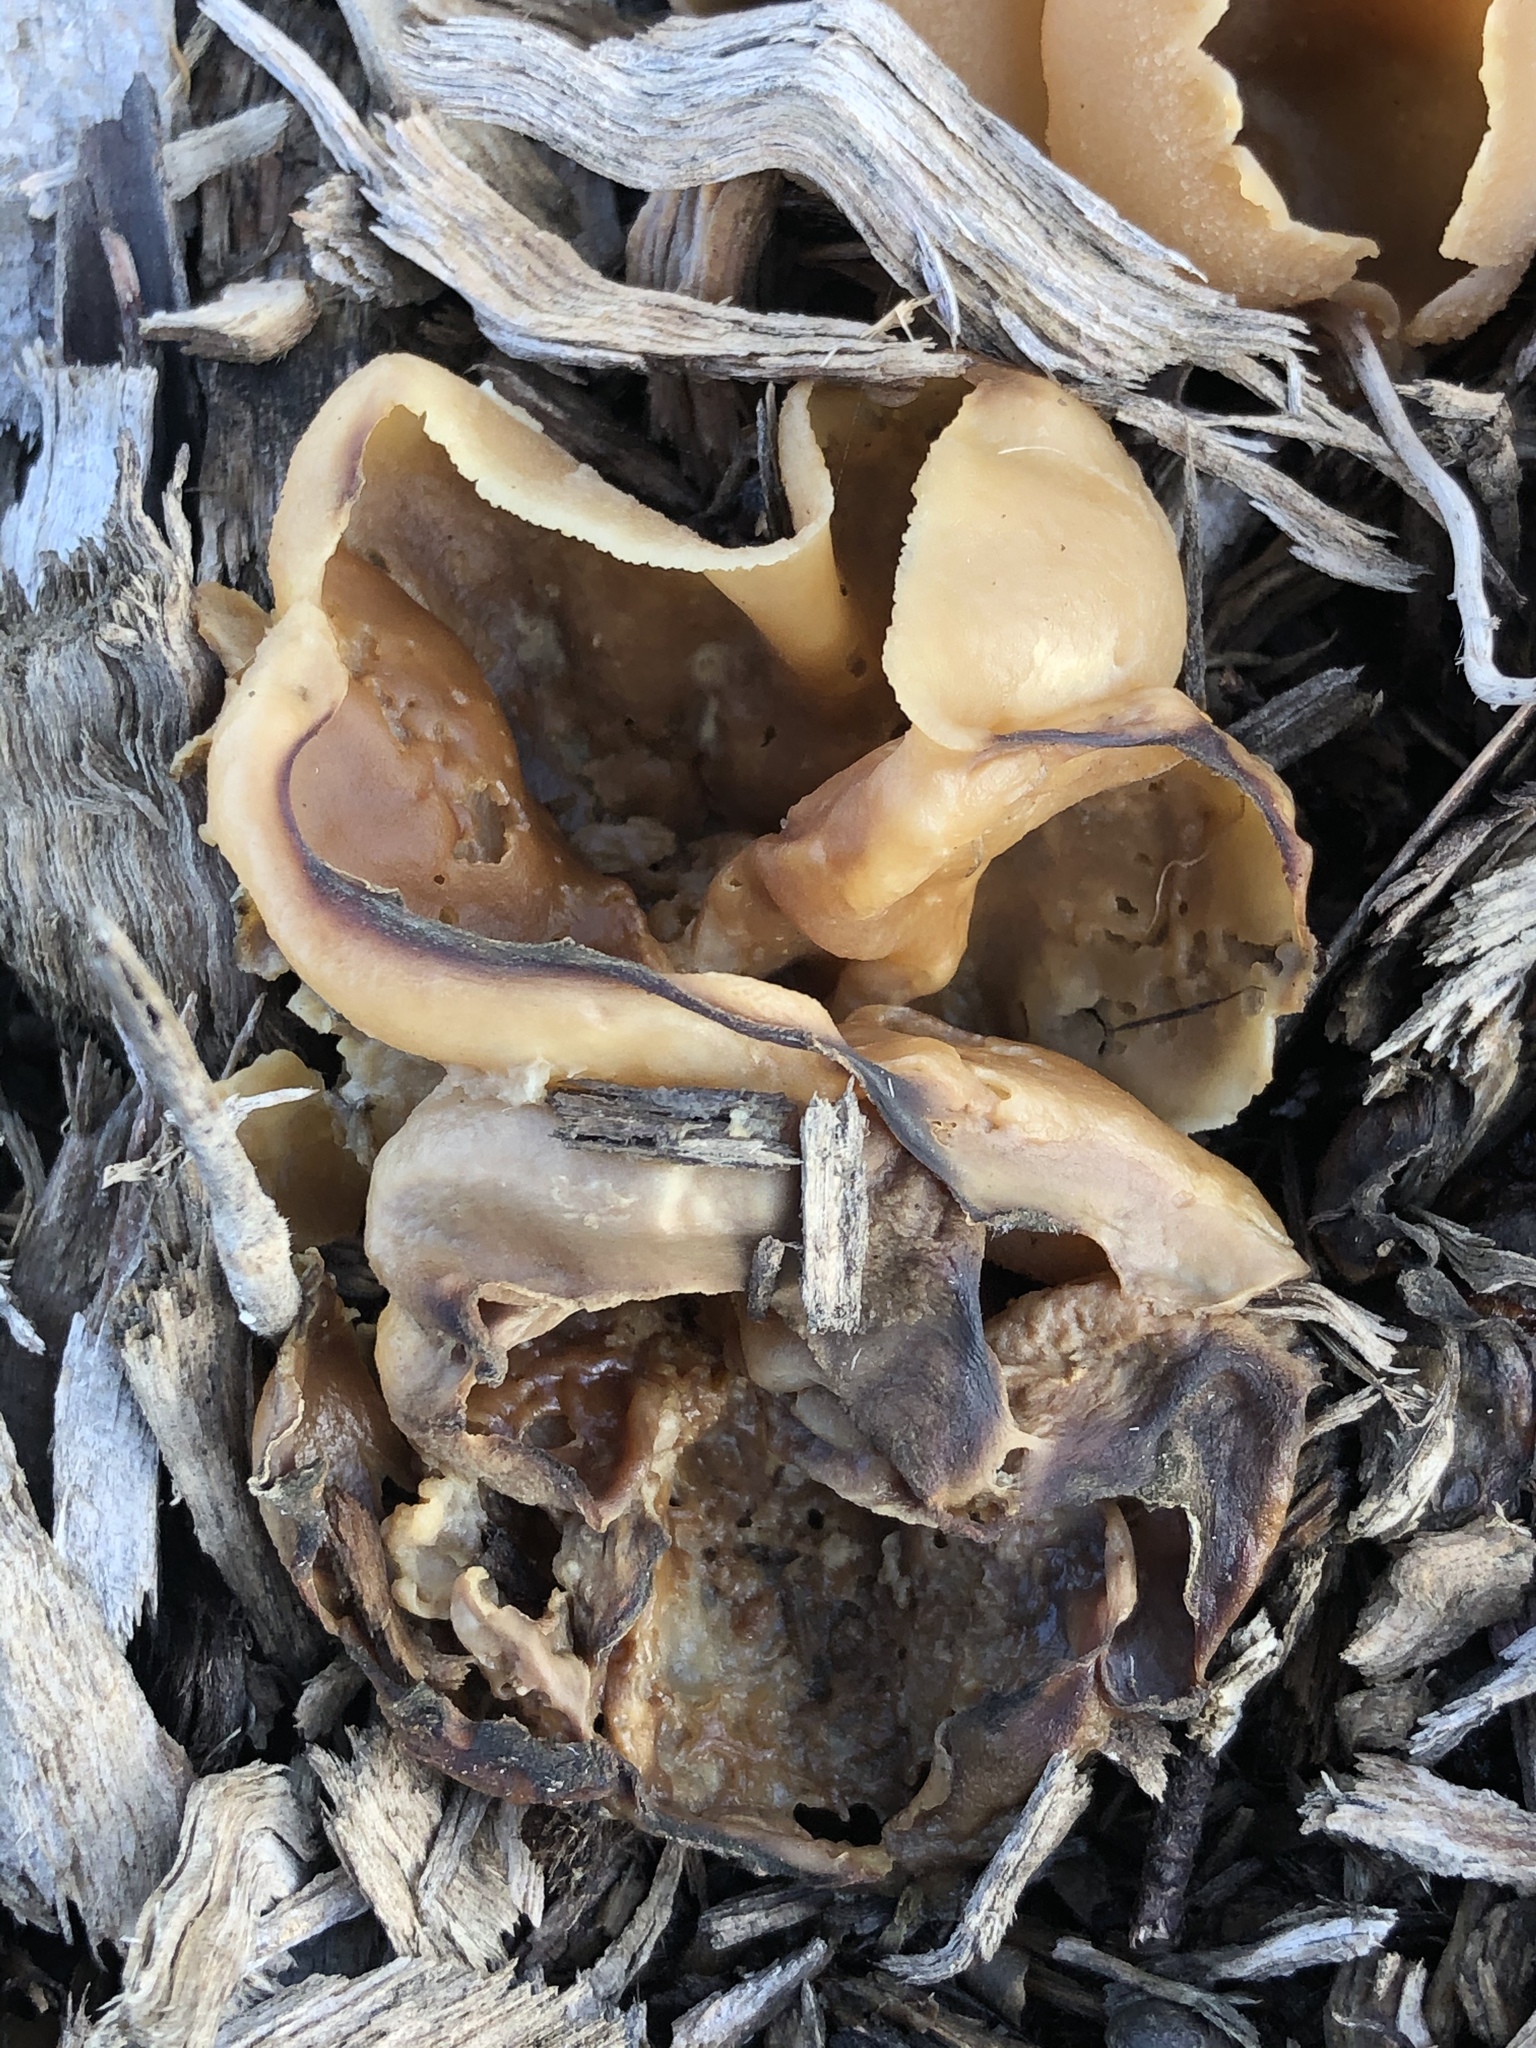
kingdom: Fungi
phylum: Ascomycota
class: Pezizomycetes
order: Pezizales
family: Pezizaceae
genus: Peziza
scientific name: Peziza varia
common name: Layered cup
